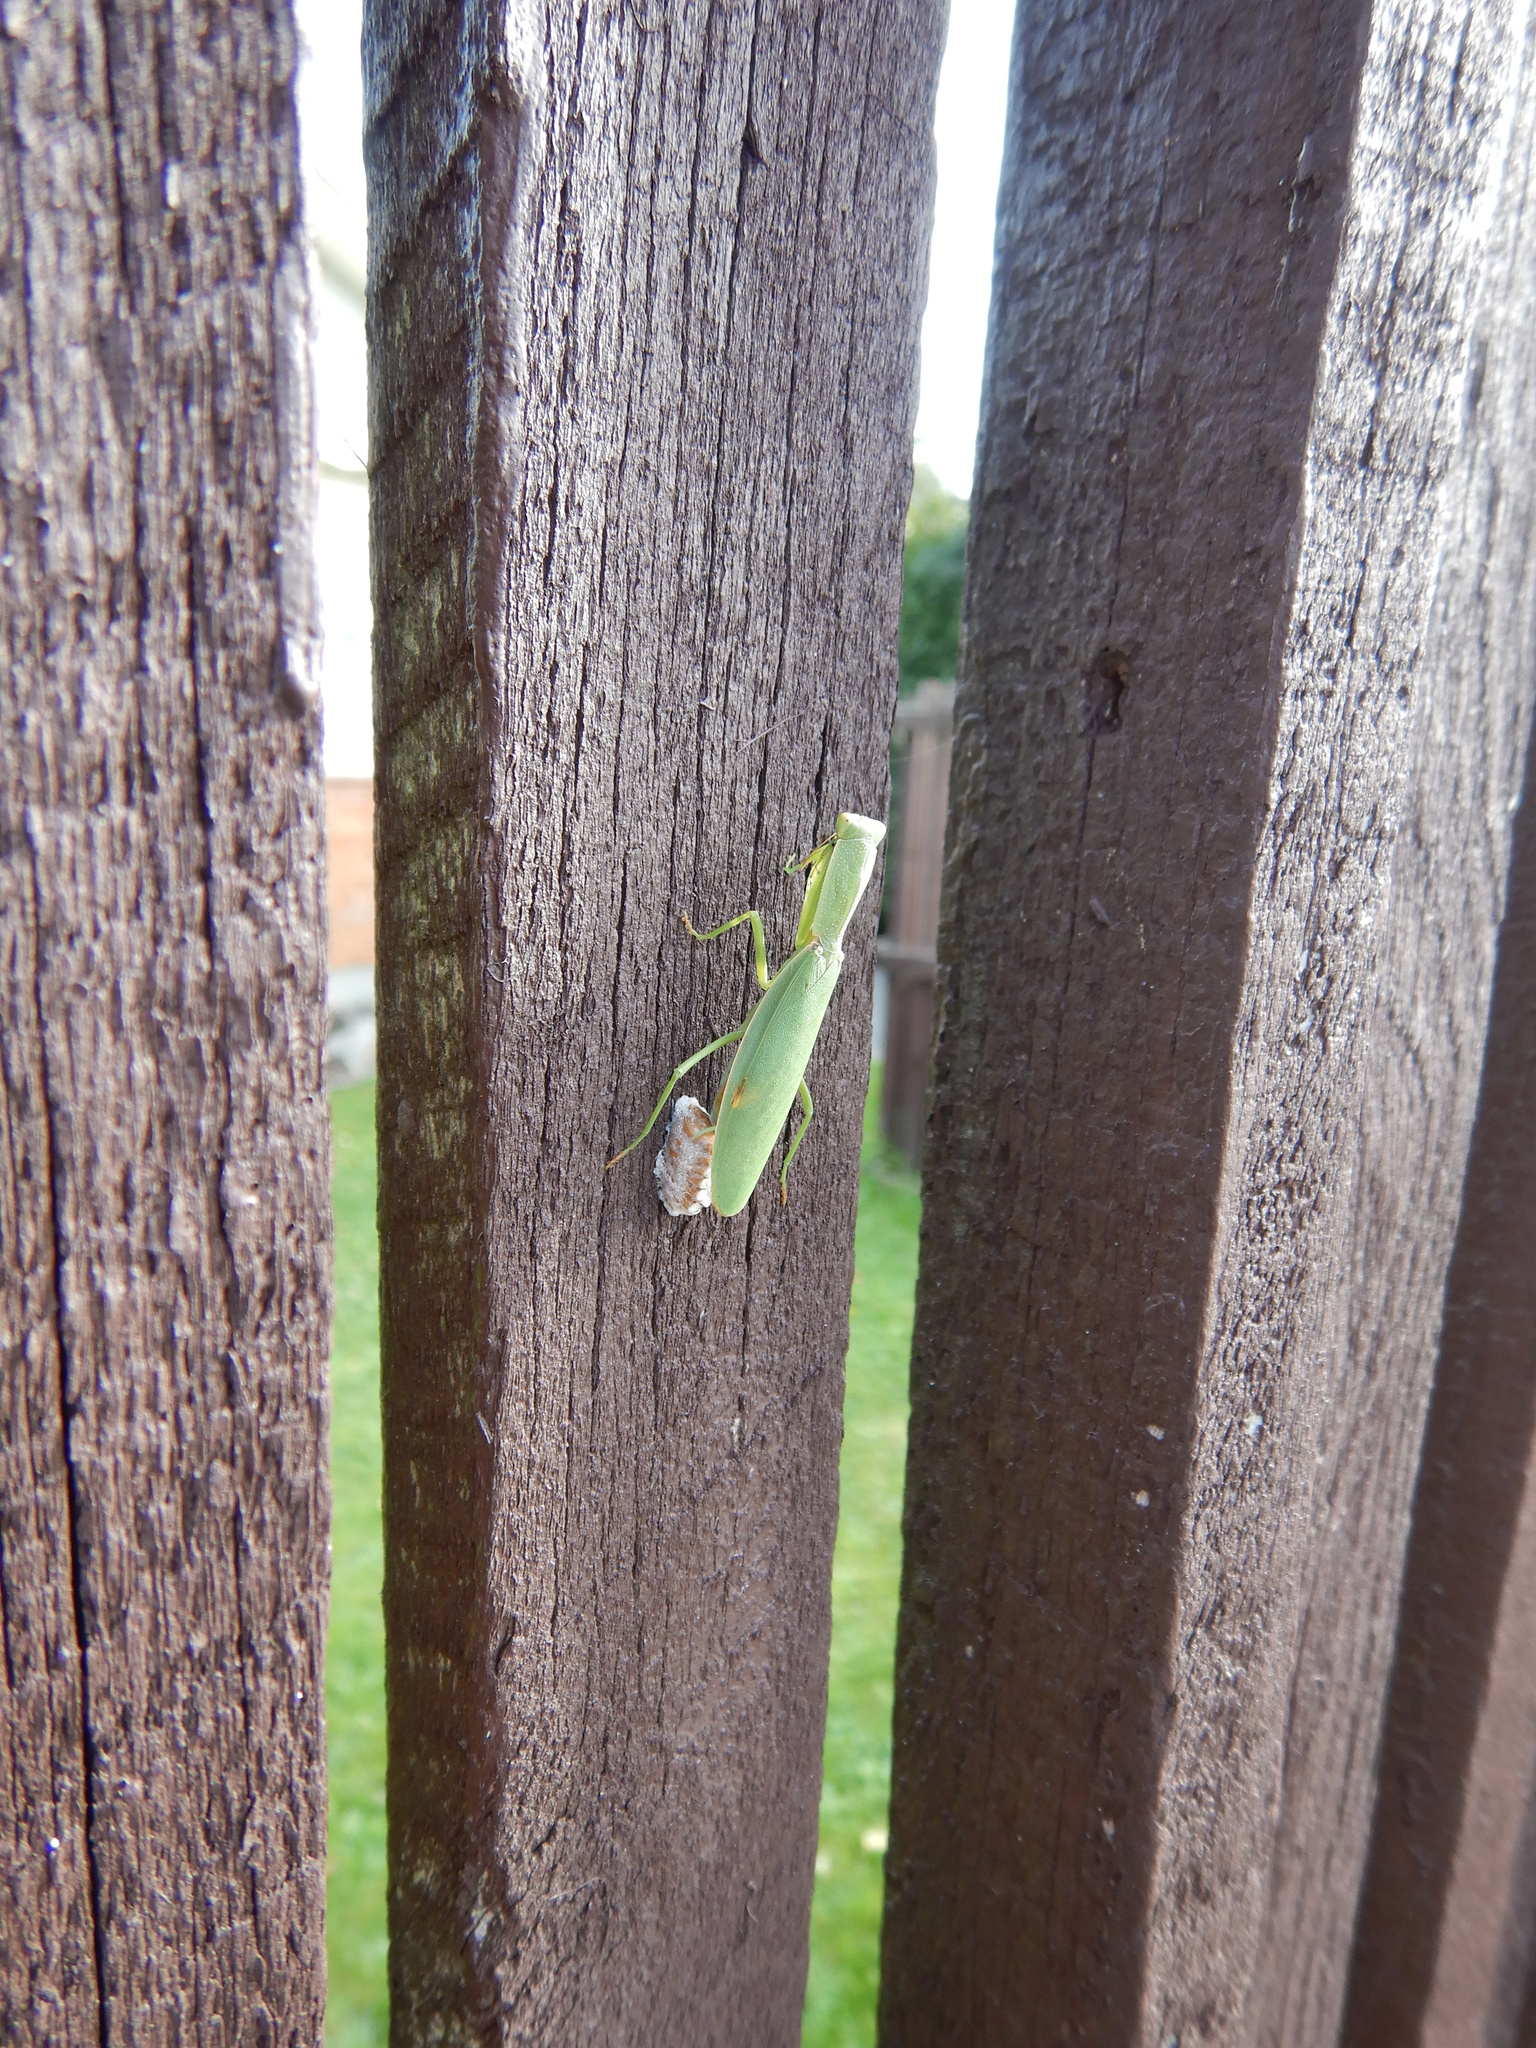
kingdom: Animalia
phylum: Arthropoda
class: Insecta
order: Mantodea
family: Mantidae
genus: Orthodera
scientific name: Orthodera novaezealandiae
